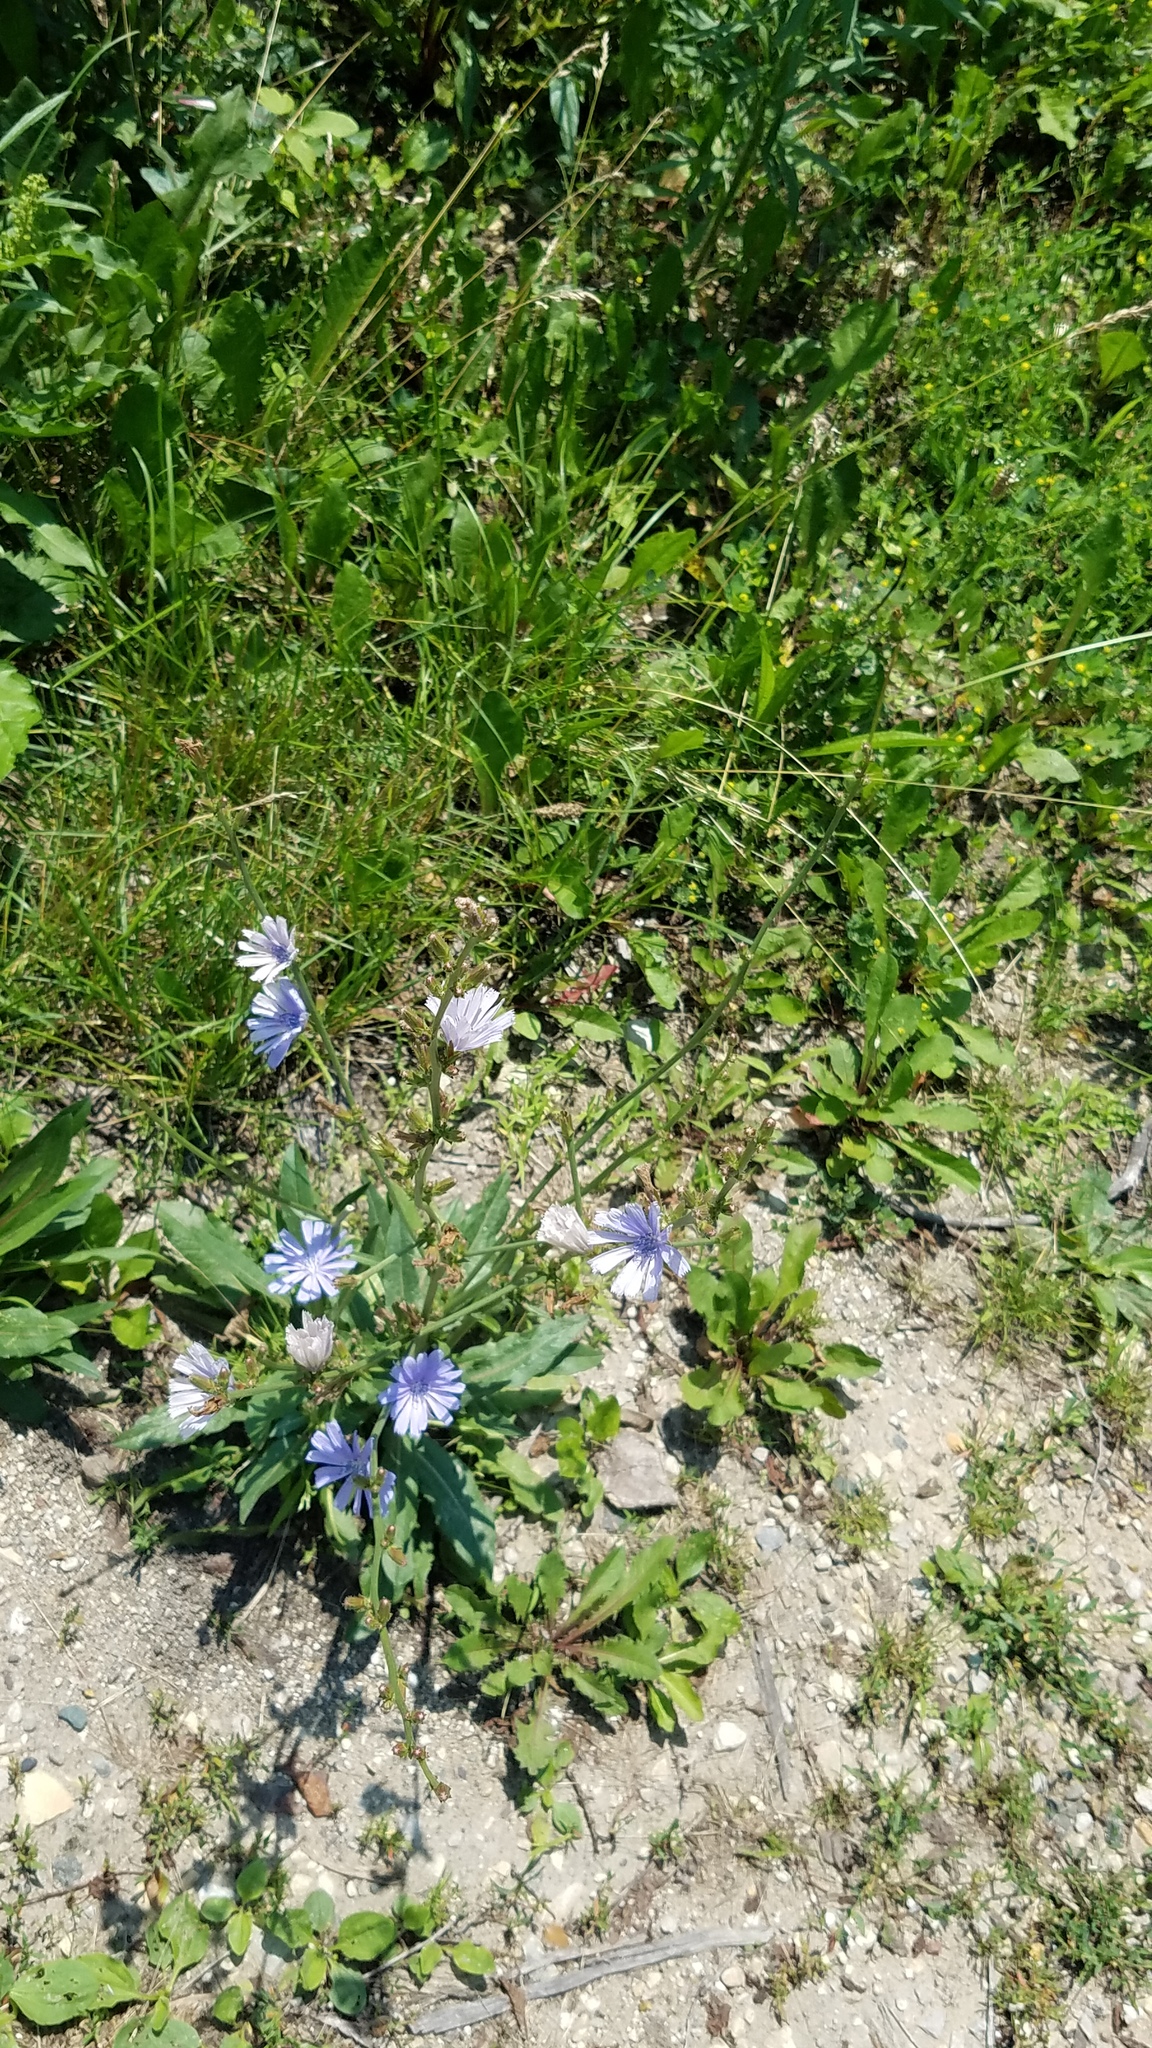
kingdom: Plantae
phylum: Tracheophyta
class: Magnoliopsida
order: Asterales
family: Asteraceae
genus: Cichorium
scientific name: Cichorium intybus
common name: Chicory
